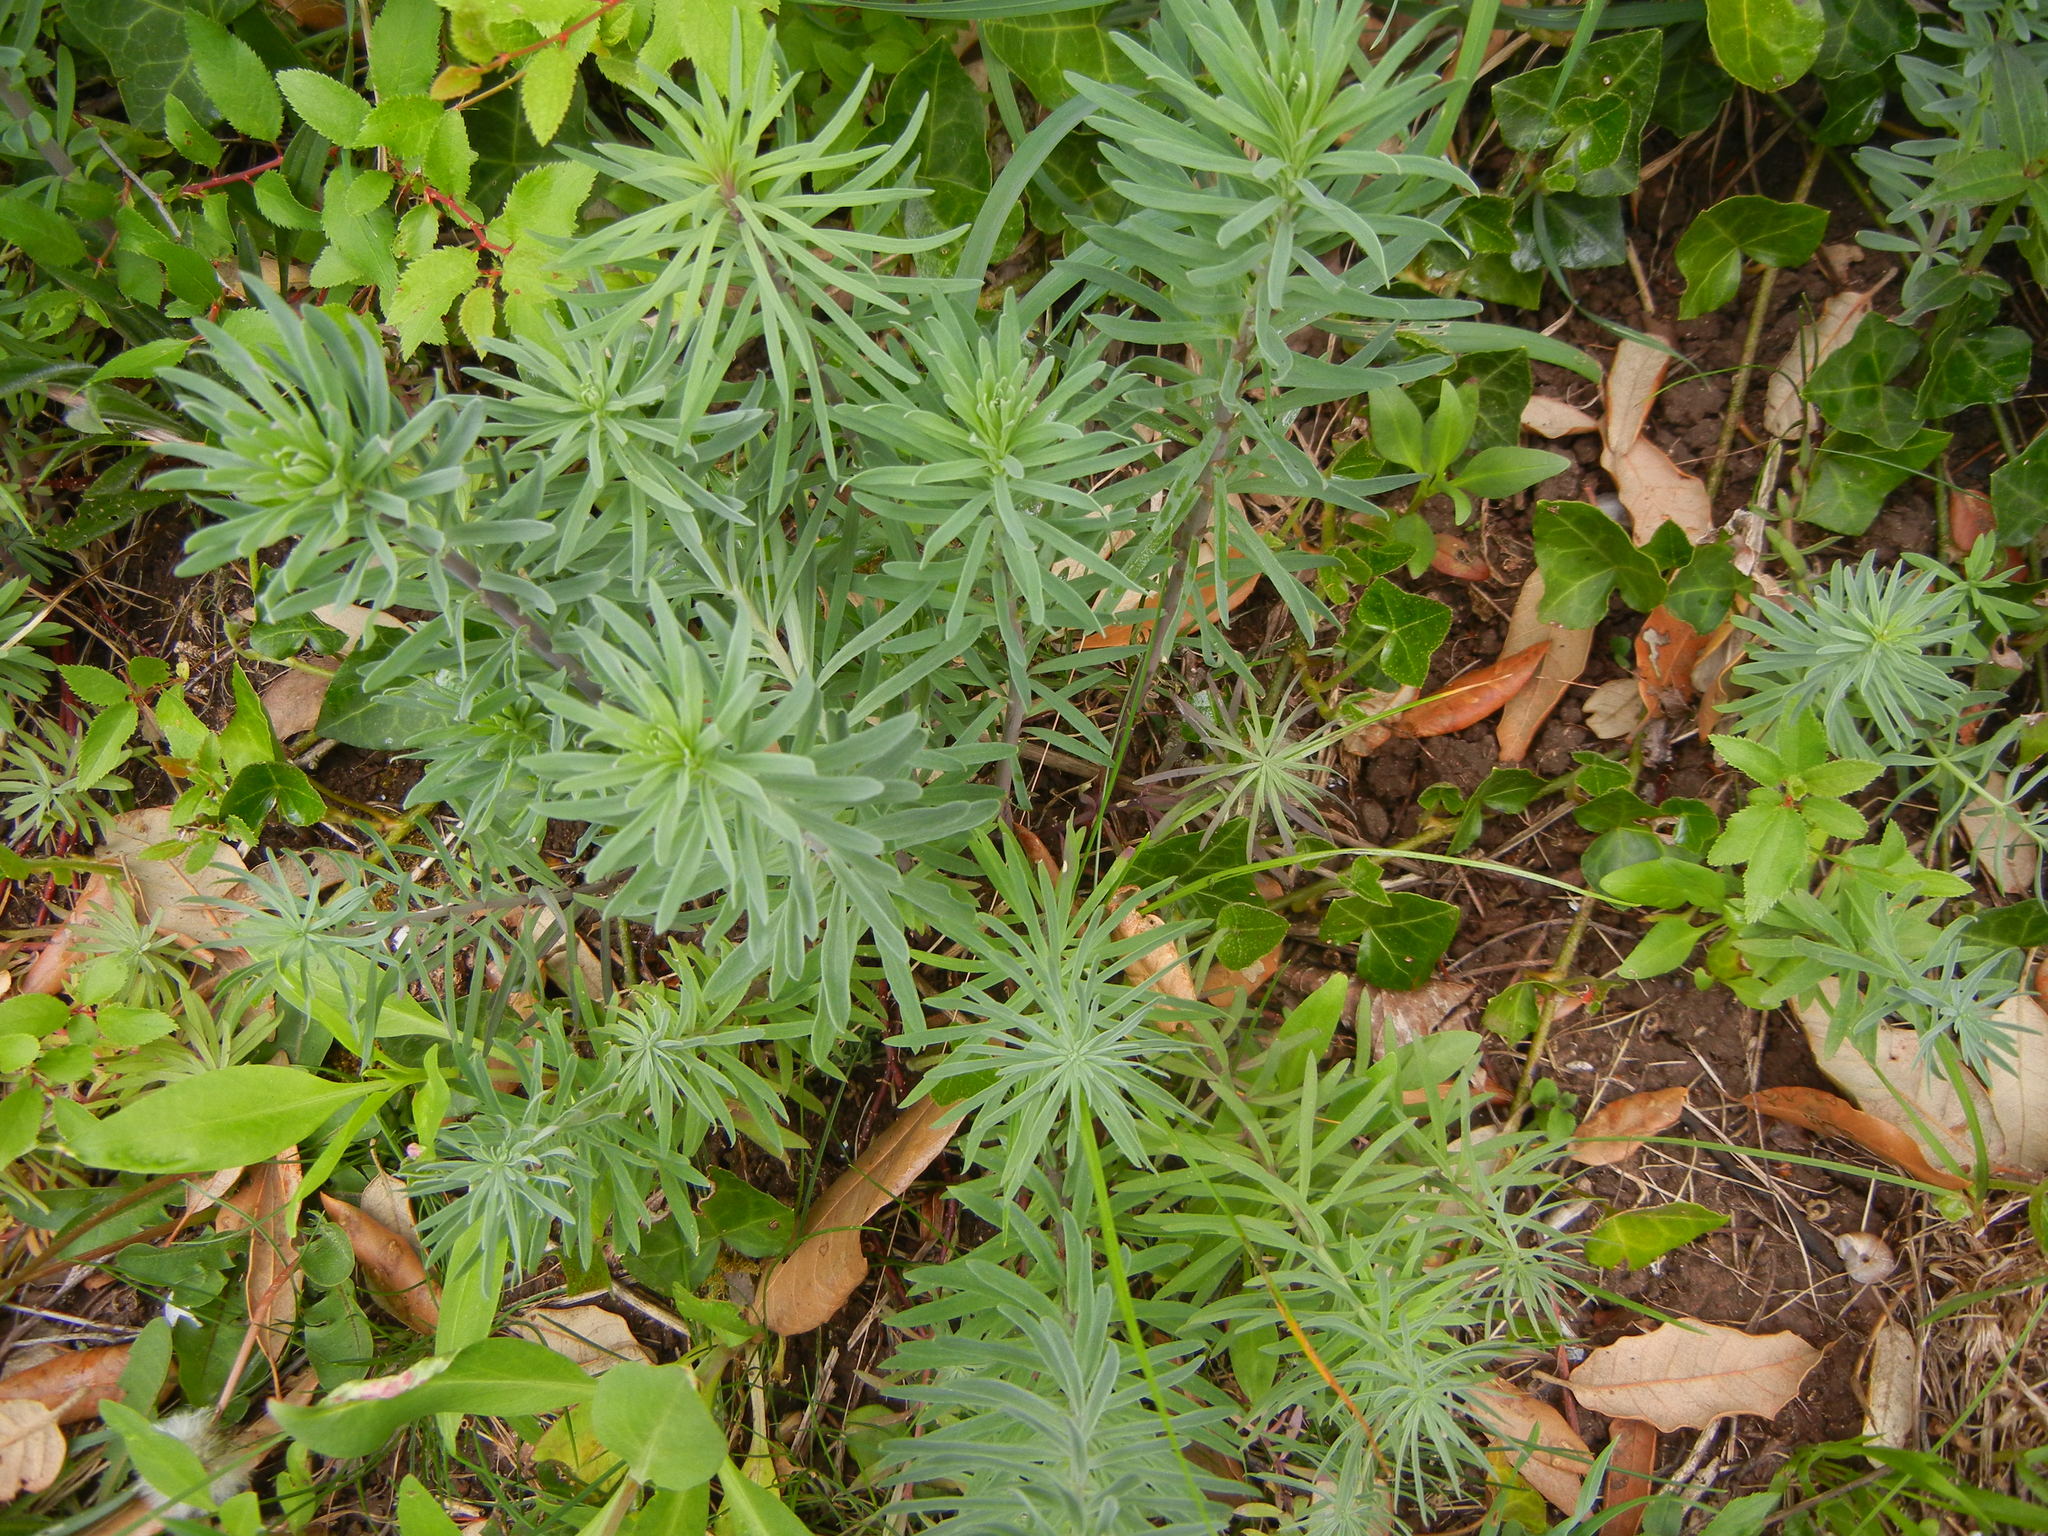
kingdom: Plantae
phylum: Tracheophyta
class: Magnoliopsida
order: Lamiales
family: Plantaginaceae
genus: Linaria
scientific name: Linaria purpurea
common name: Purple toadflax
